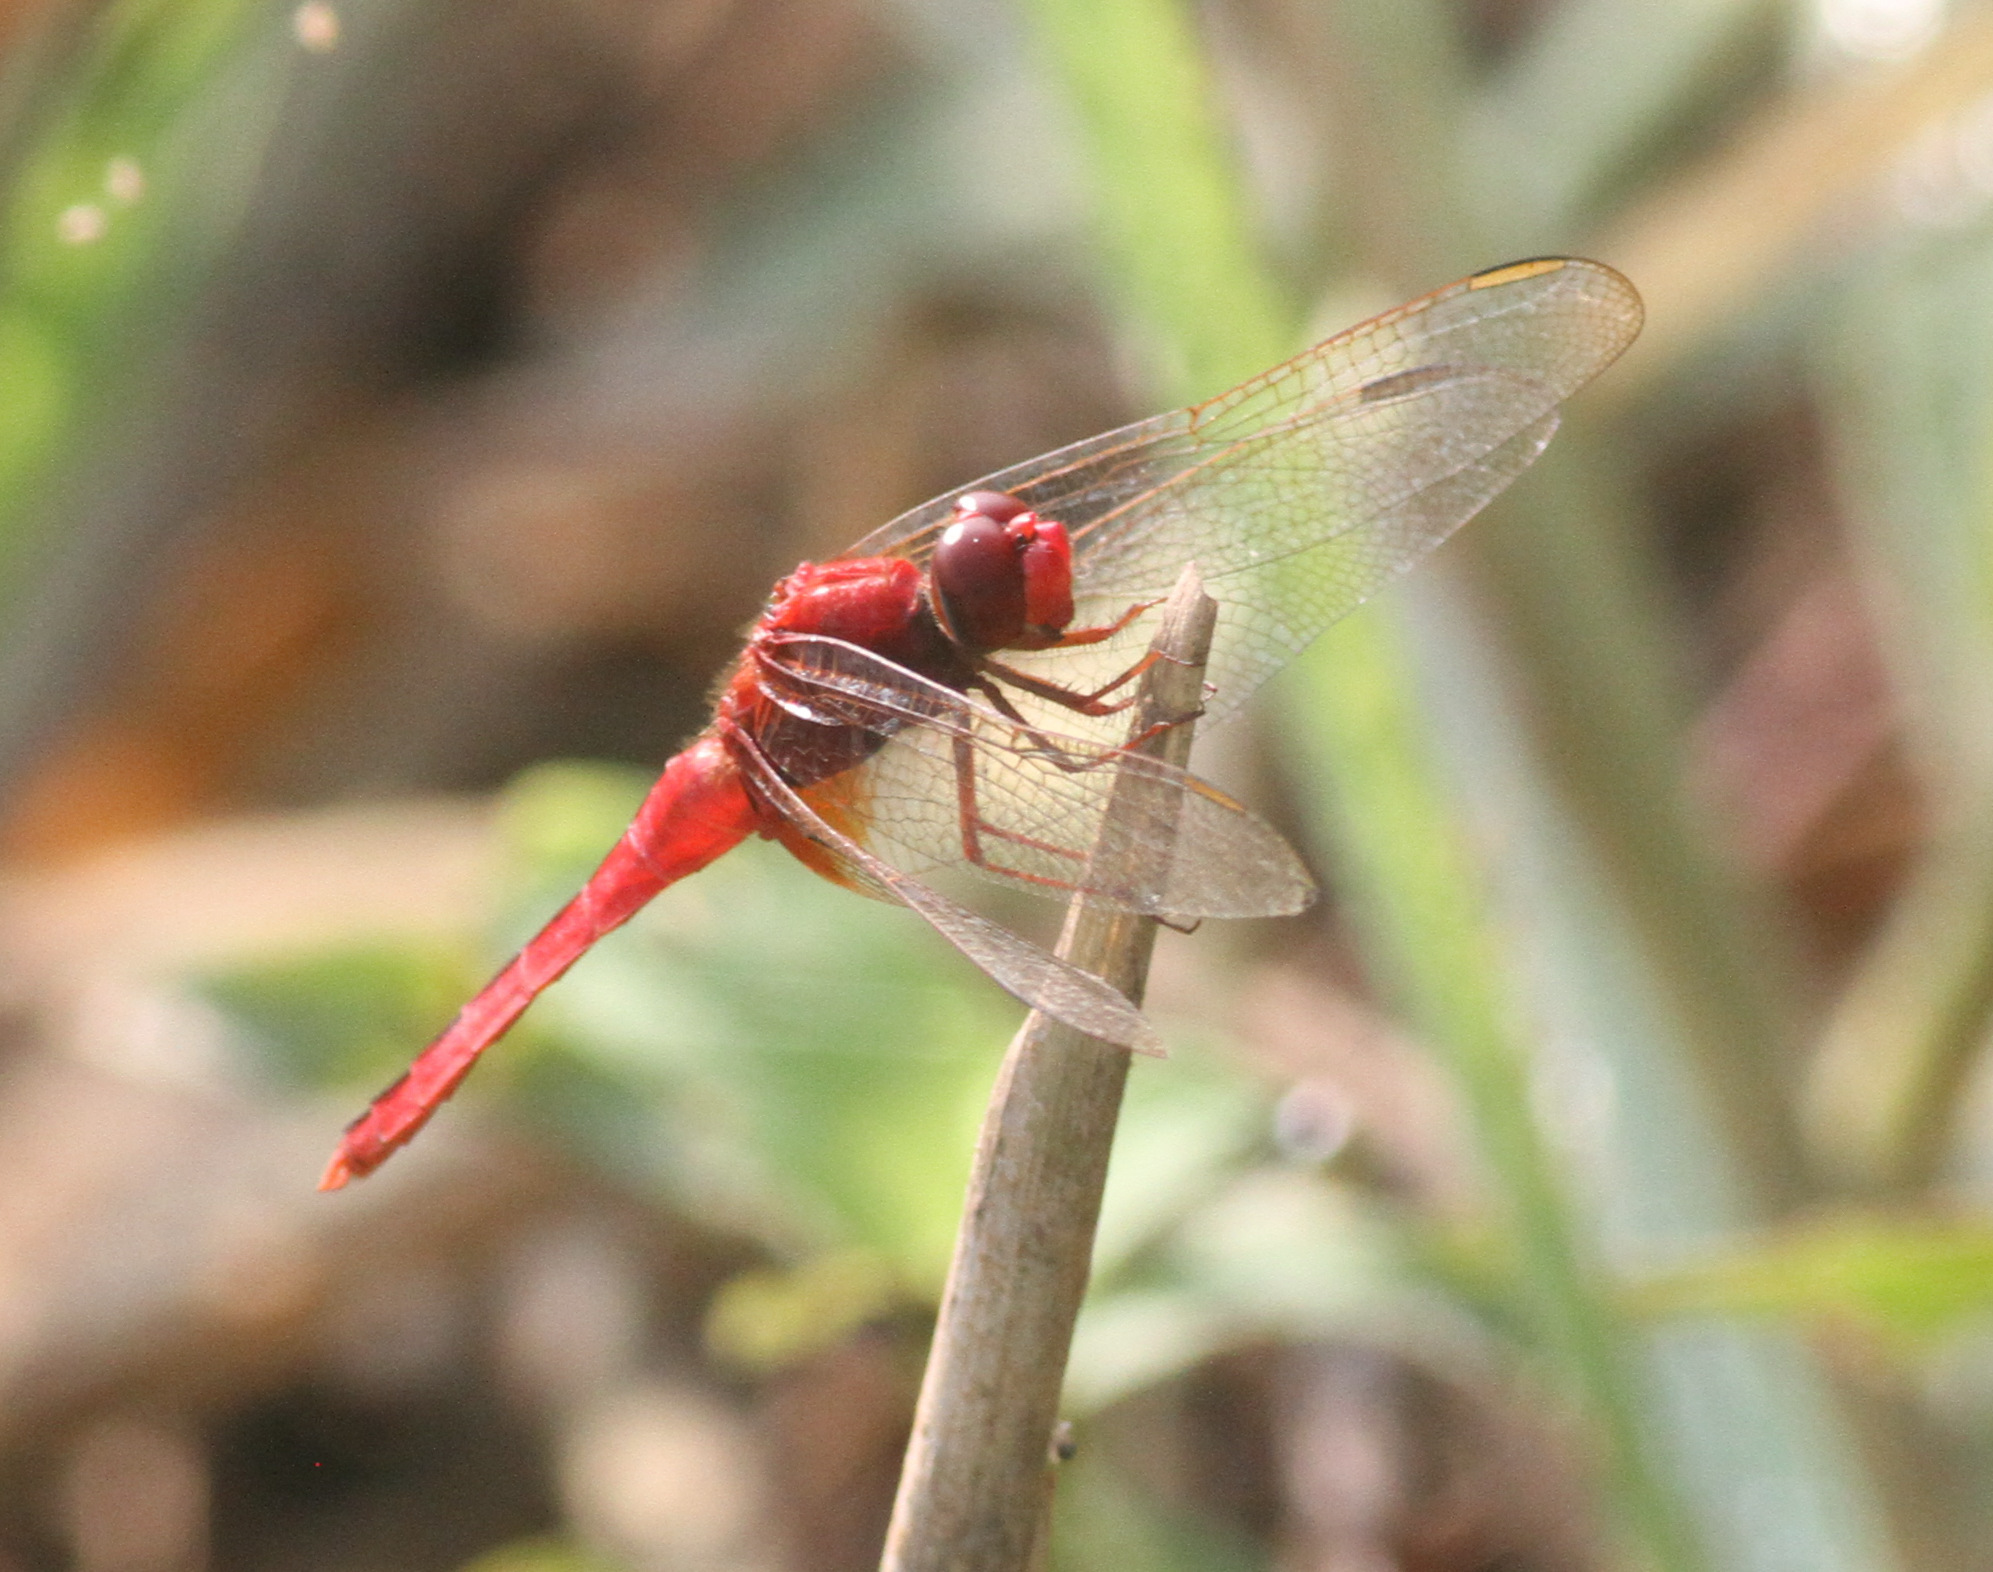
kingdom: Animalia
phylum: Arthropoda
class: Insecta
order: Odonata
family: Libellulidae
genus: Crocothemis
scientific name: Crocothemis servilia
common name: Scarlet skimmer
